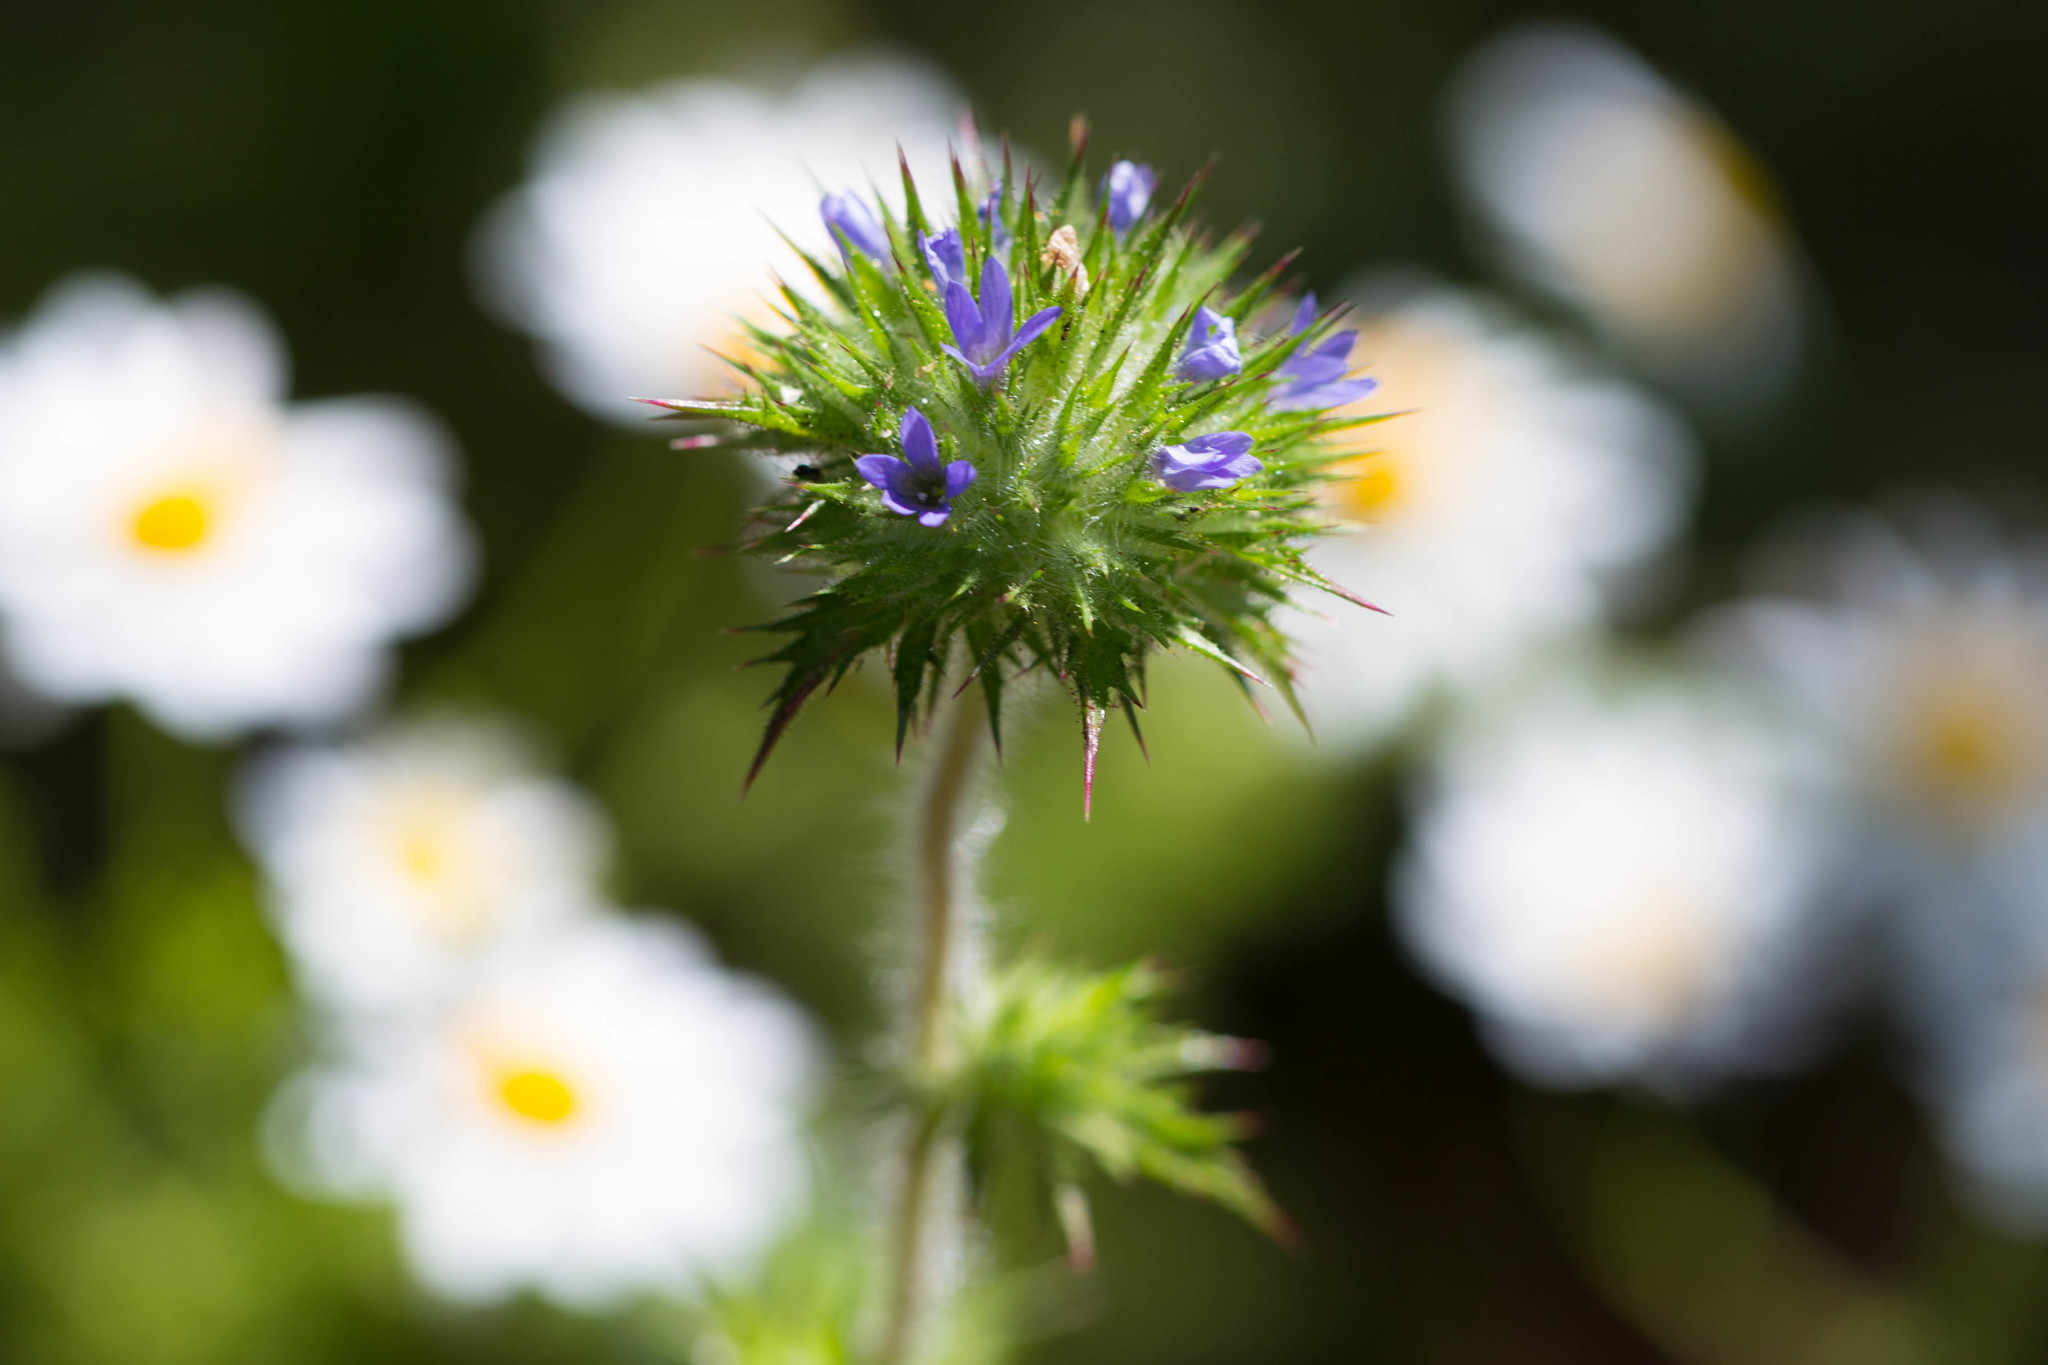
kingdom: Plantae
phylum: Tracheophyta
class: Magnoliopsida
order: Ericales
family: Polemoniaceae
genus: Navarretia
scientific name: Navarretia squarrosa
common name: Skunkweed
